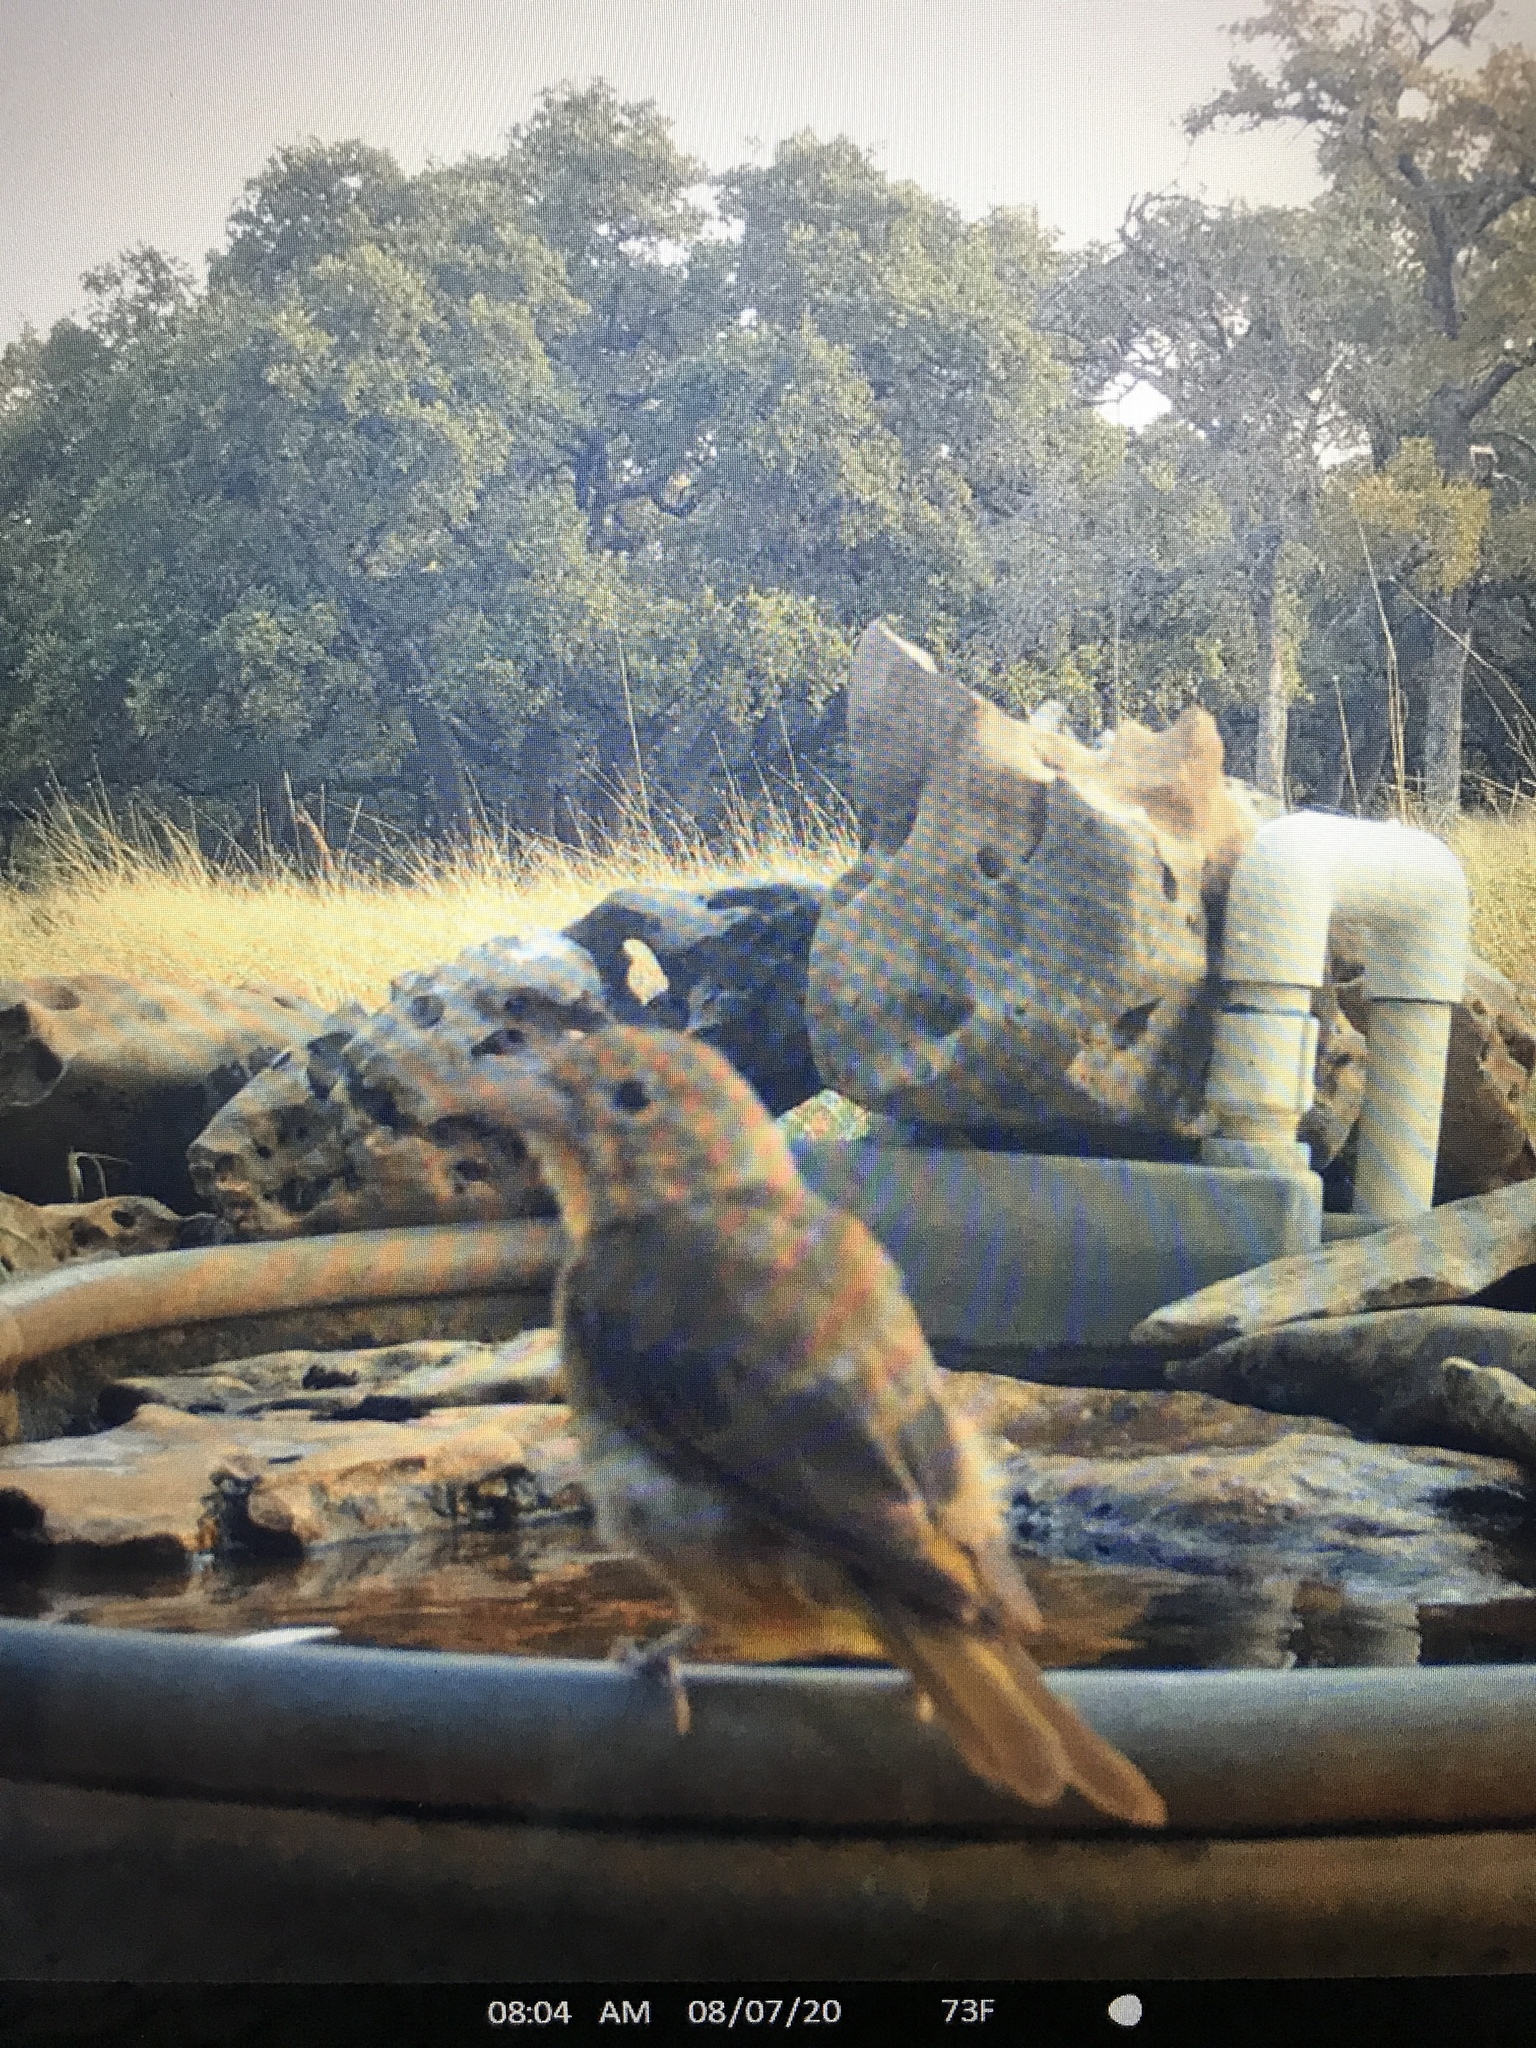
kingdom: Animalia
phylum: Chordata
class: Aves
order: Passeriformes
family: Cardinalidae
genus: Piranga
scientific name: Piranga rubra
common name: Summer tanager
